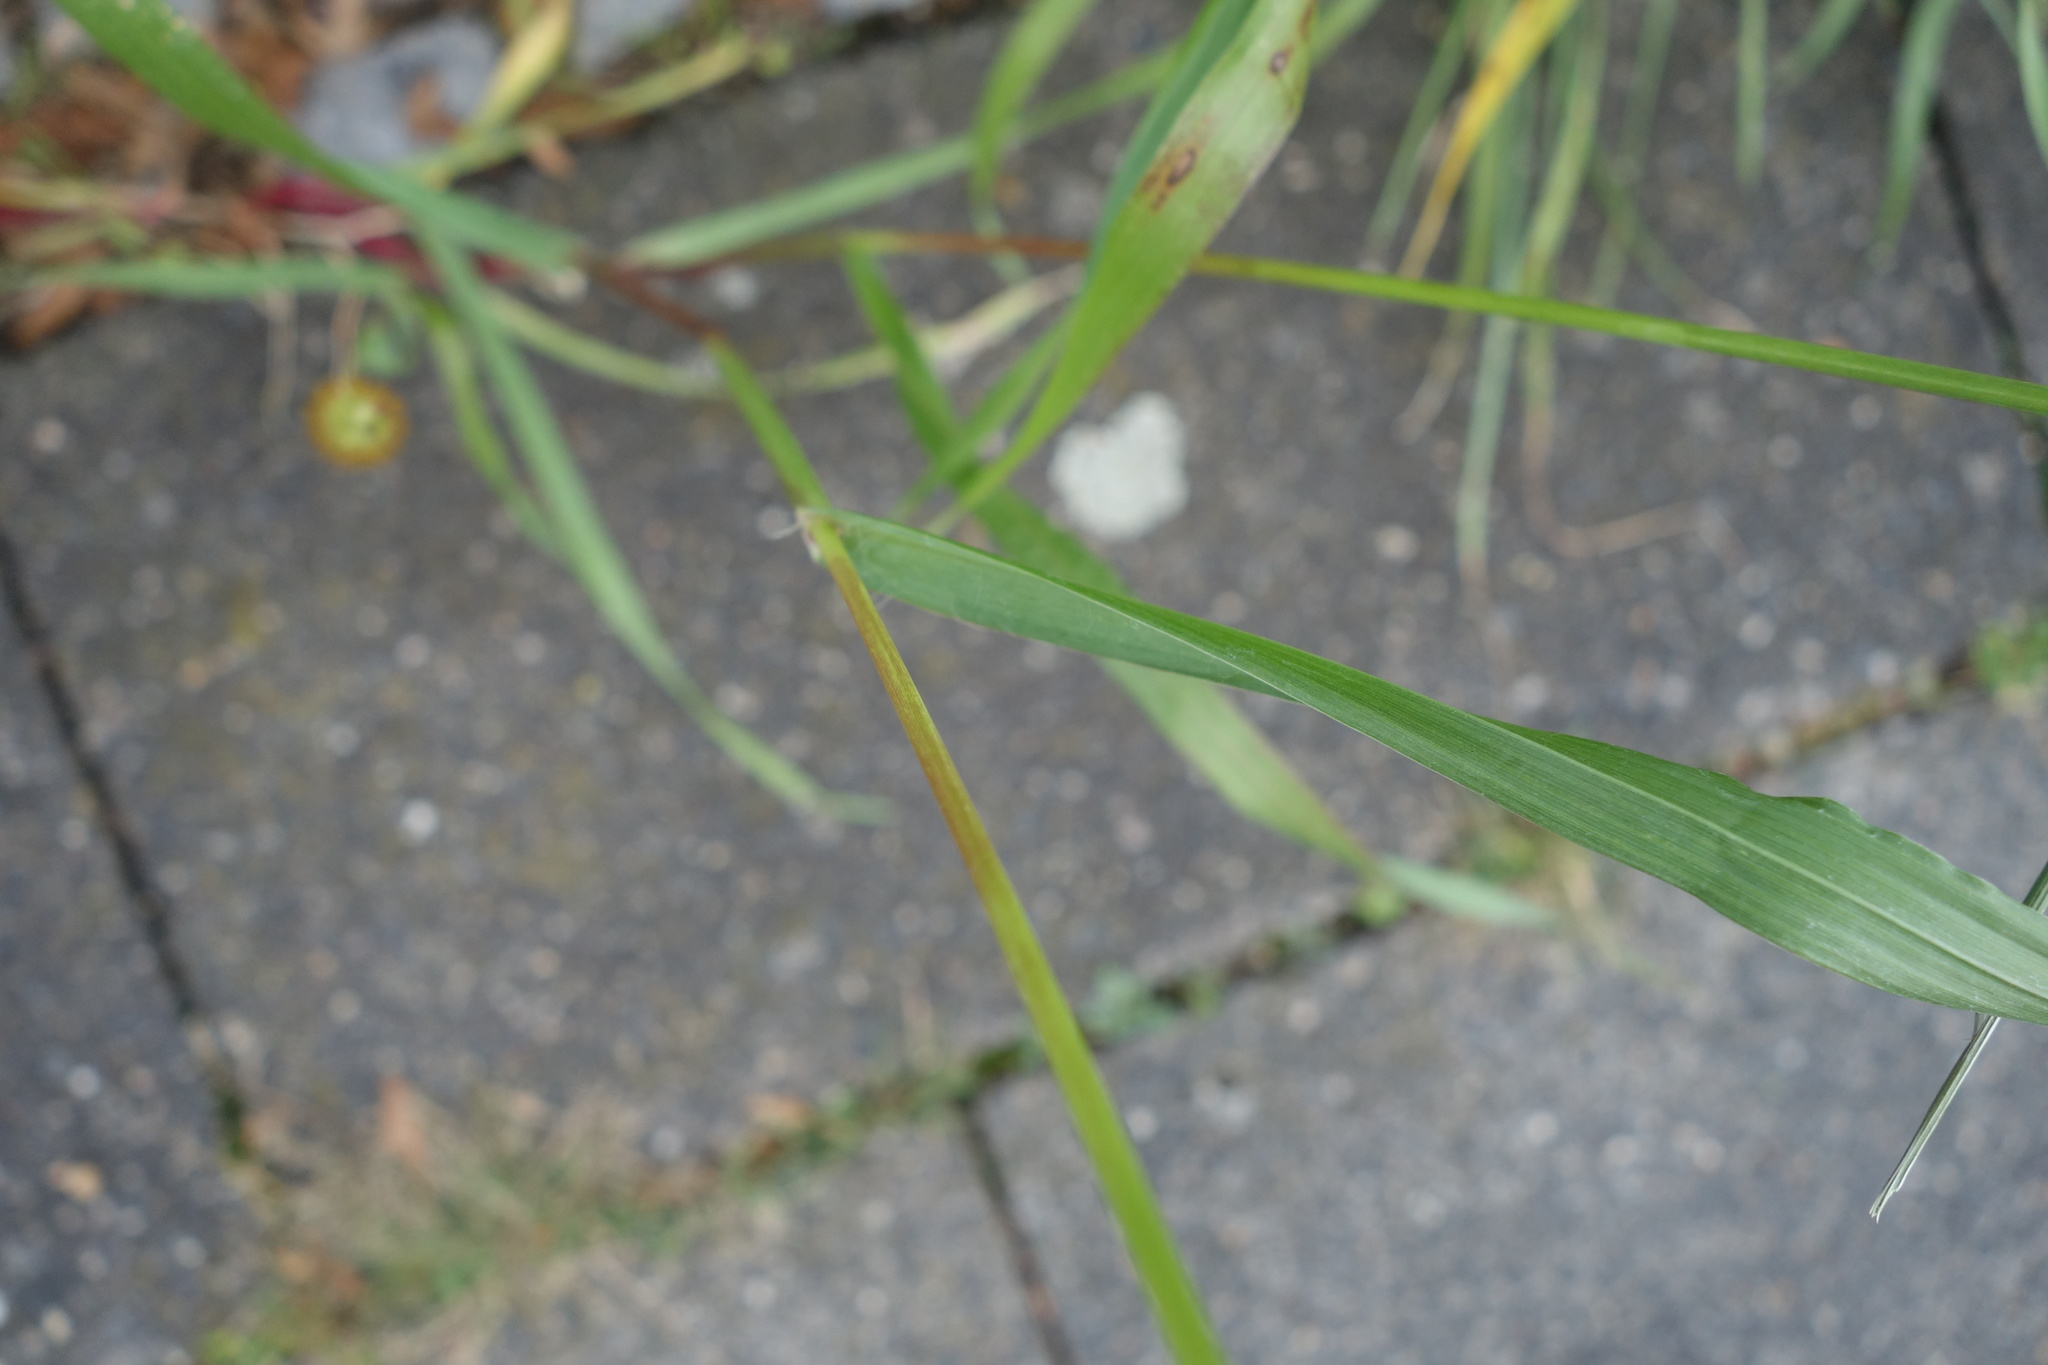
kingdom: Plantae
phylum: Tracheophyta
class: Liliopsida
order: Poales
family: Poaceae
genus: Setaria
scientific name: Setaria pumila
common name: Yellow bristle-grass
